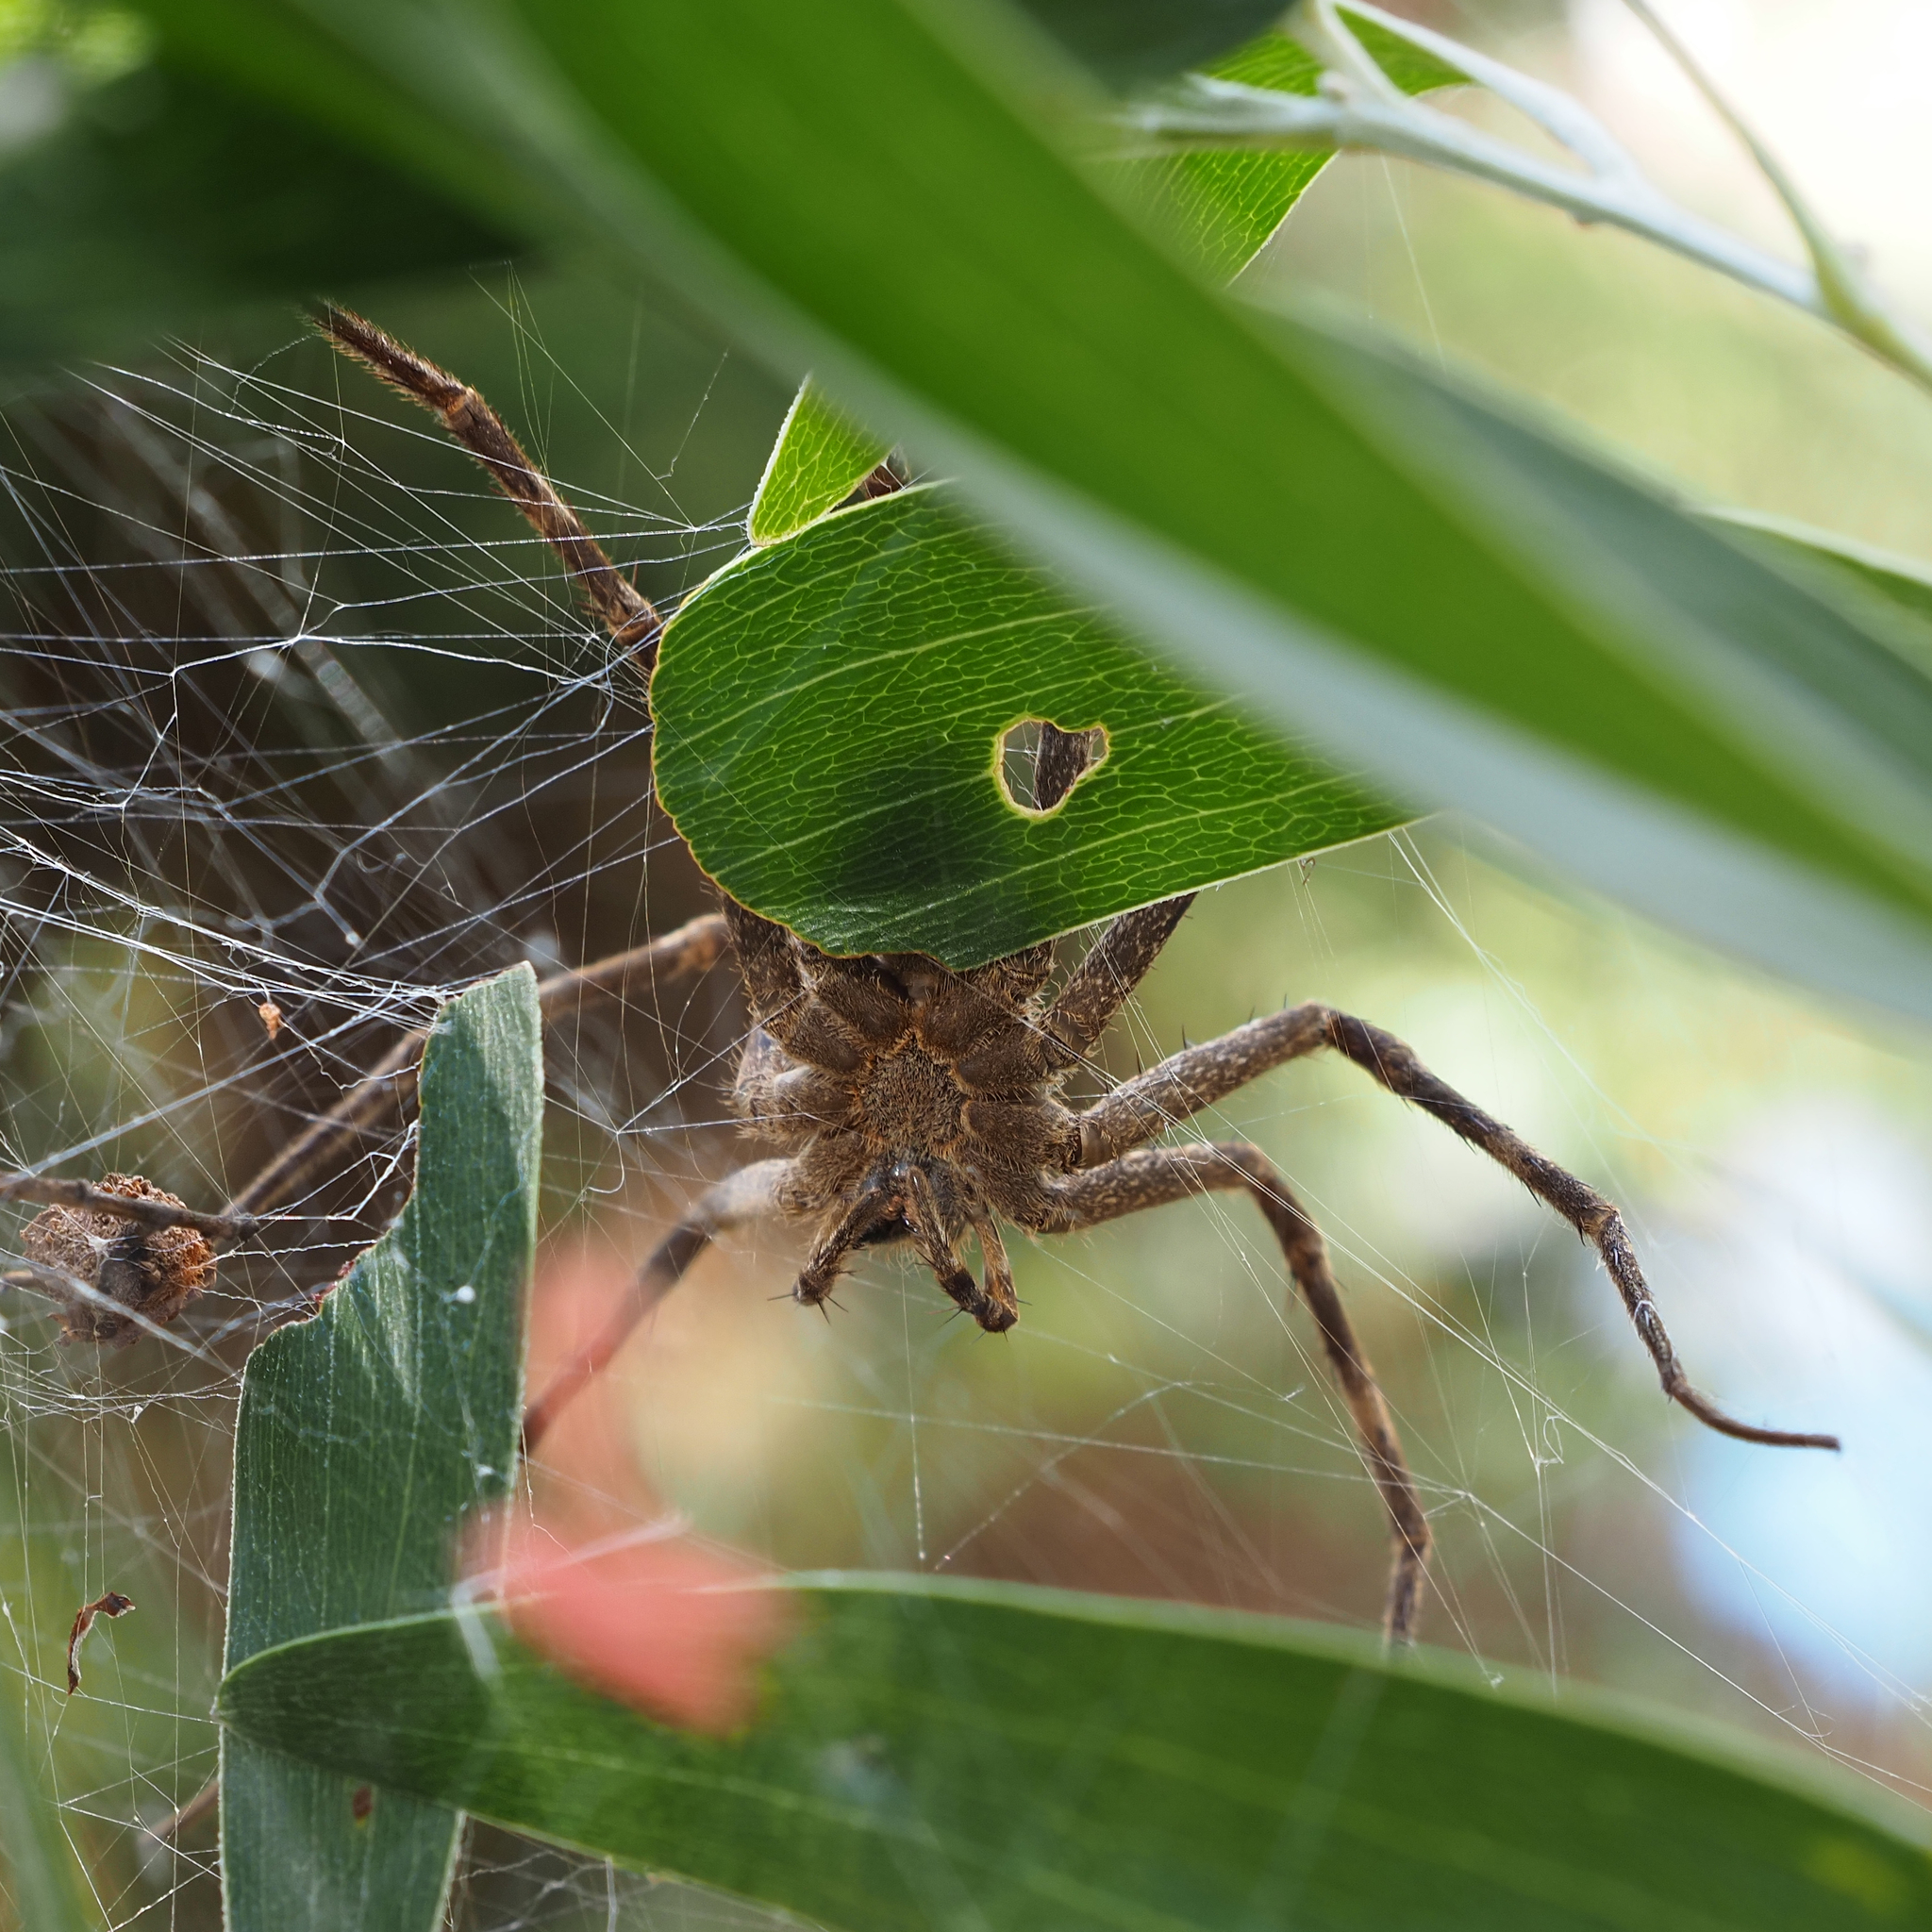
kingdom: Animalia
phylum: Arthropoda
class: Arachnida
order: Araneae
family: Pisauridae
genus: Megadolomedes
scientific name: Megadolomedes johndouglasi
